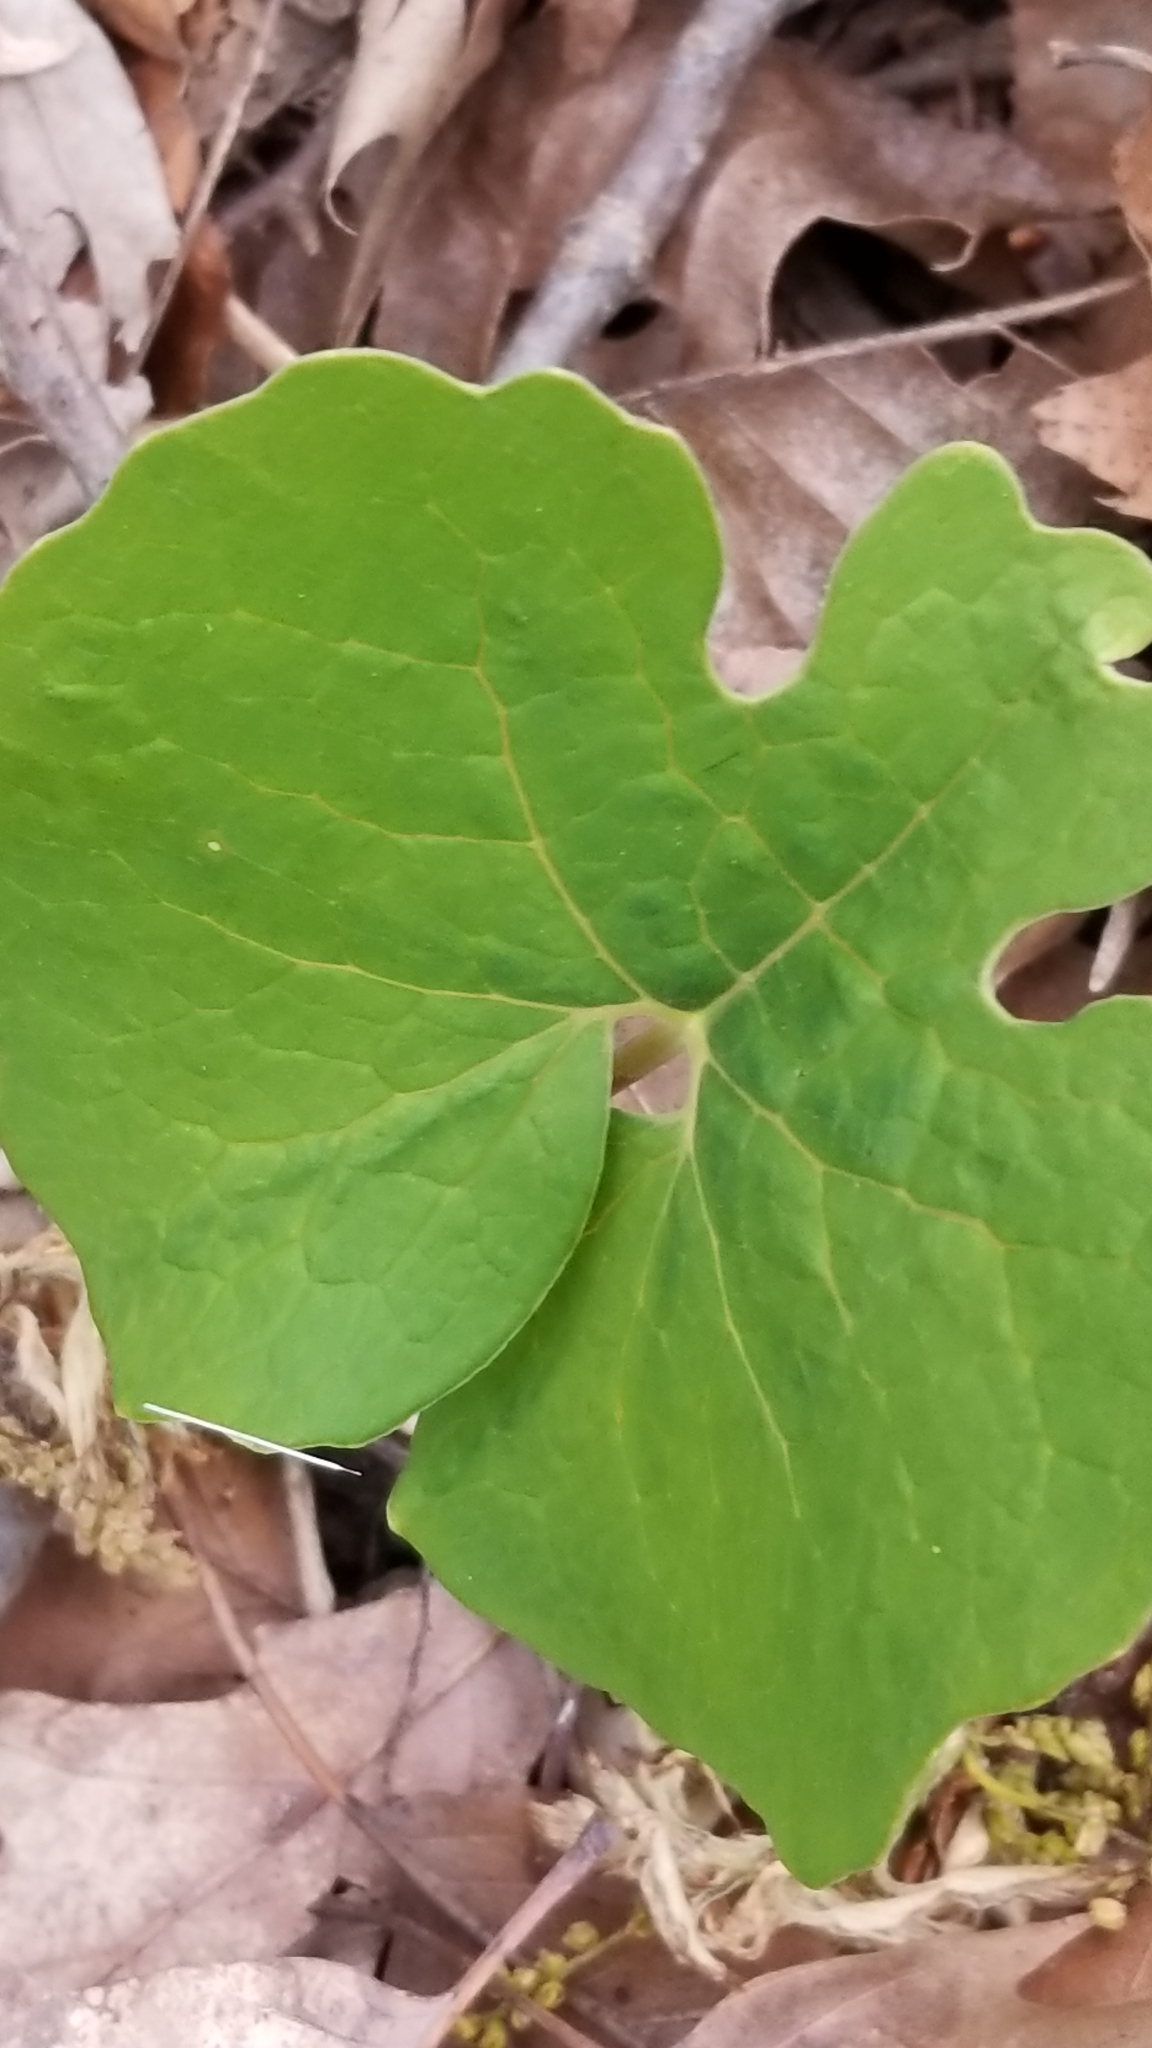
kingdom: Plantae
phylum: Tracheophyta
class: Magnoliopsida
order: Ranunculales
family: Papaveraceae
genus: Sanguinaria
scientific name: Sanguinaria canadensis
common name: Bloodroot
